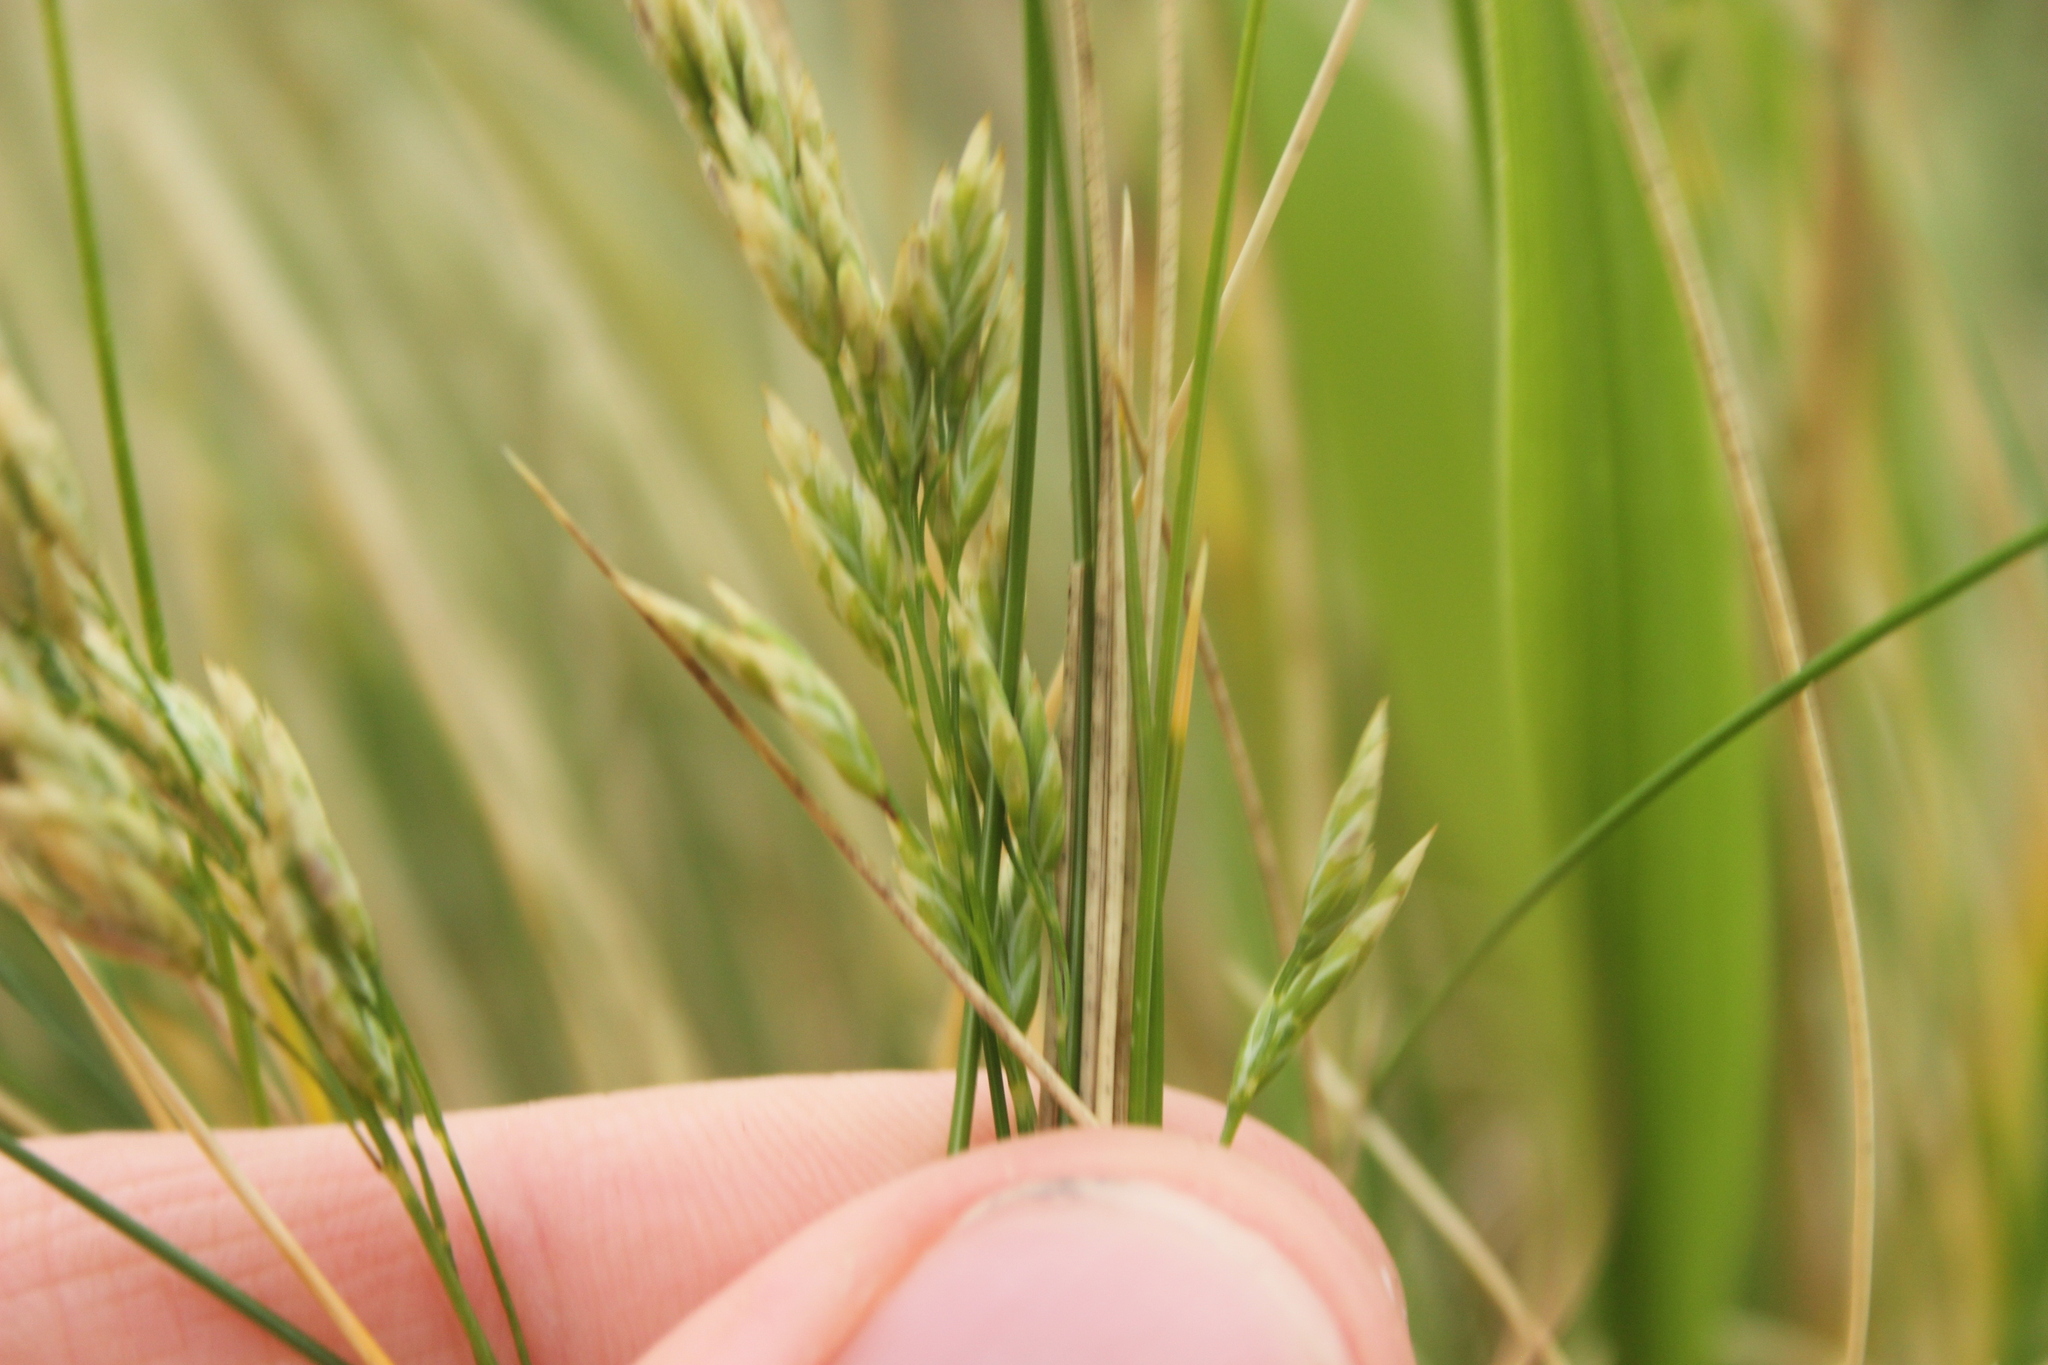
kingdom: Plantae
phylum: Tracheophyta
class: Liliopsida
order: Poales
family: Poaceae
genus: Poa
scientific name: Poa astonii
